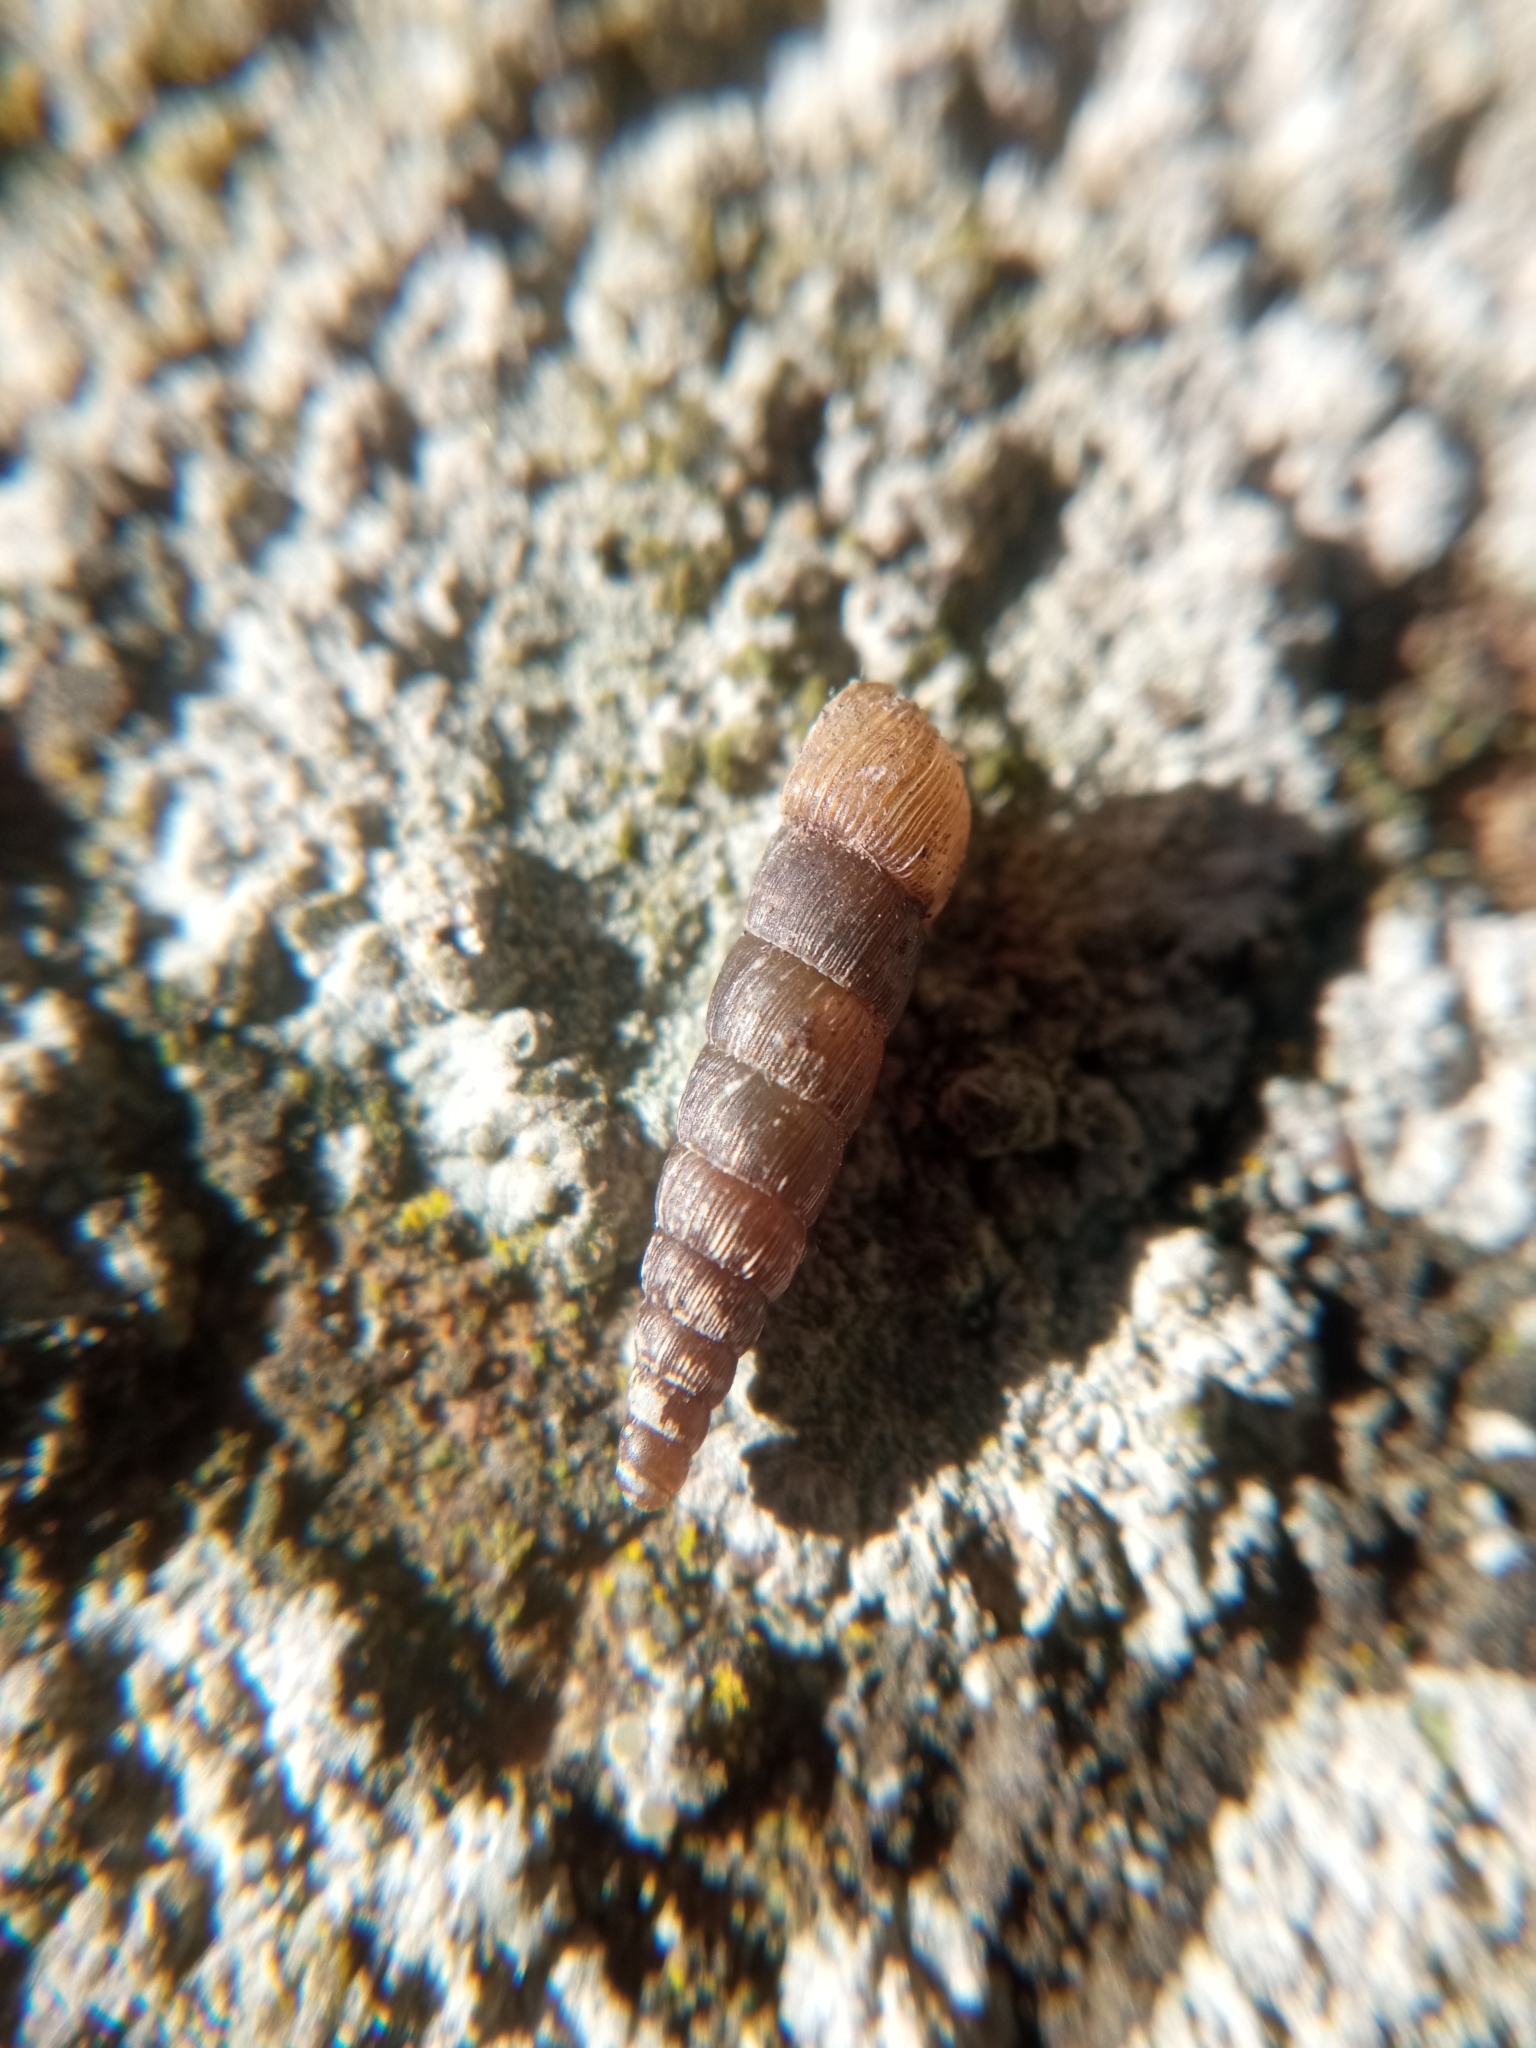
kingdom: Animalia
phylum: Mollusca
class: Gastropoda
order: Stylommatophora
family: Clausiliidae
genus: Balea
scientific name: Balea perversa
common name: Tree snail
